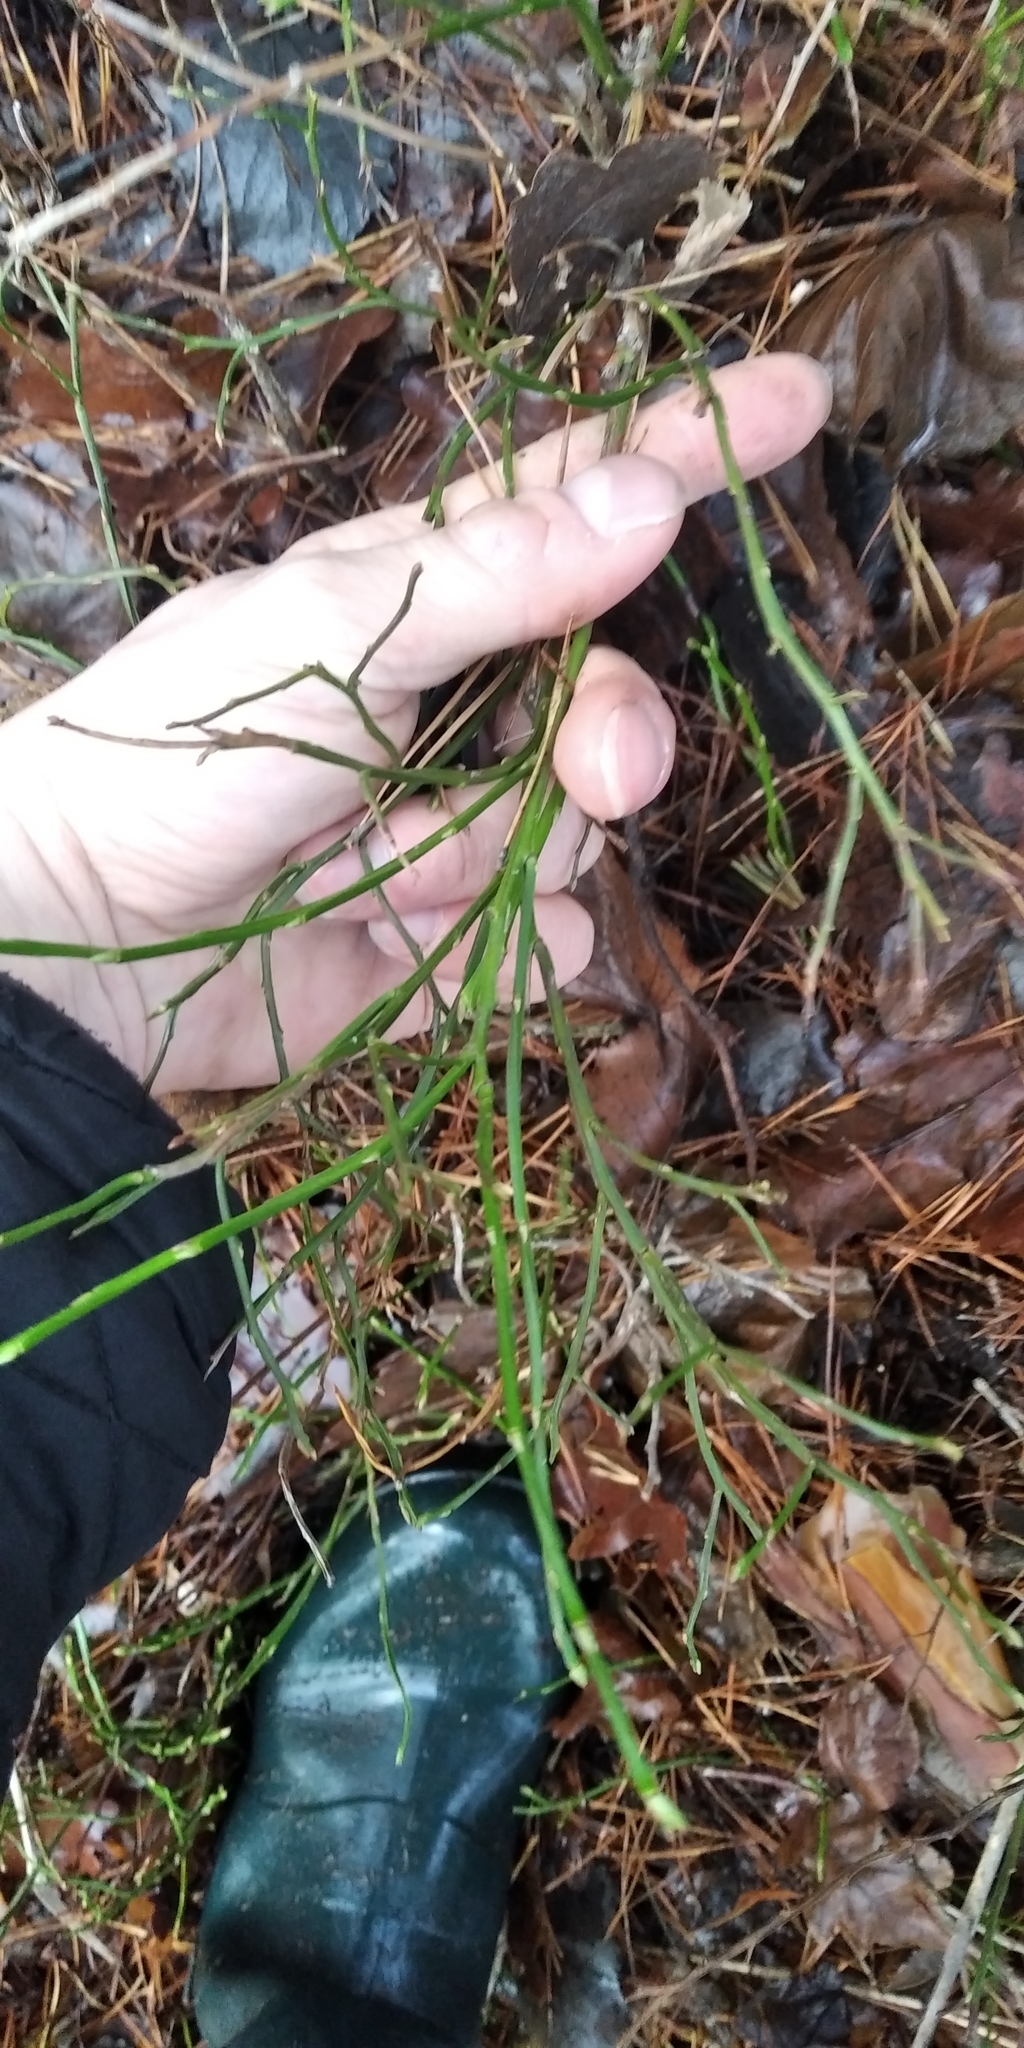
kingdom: Plantae
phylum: Tracheophyta
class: Magnoliopsida
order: Ericales
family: Ericaceae
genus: Vaccinium
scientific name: Vaccinium myrtillus
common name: Bilberry
